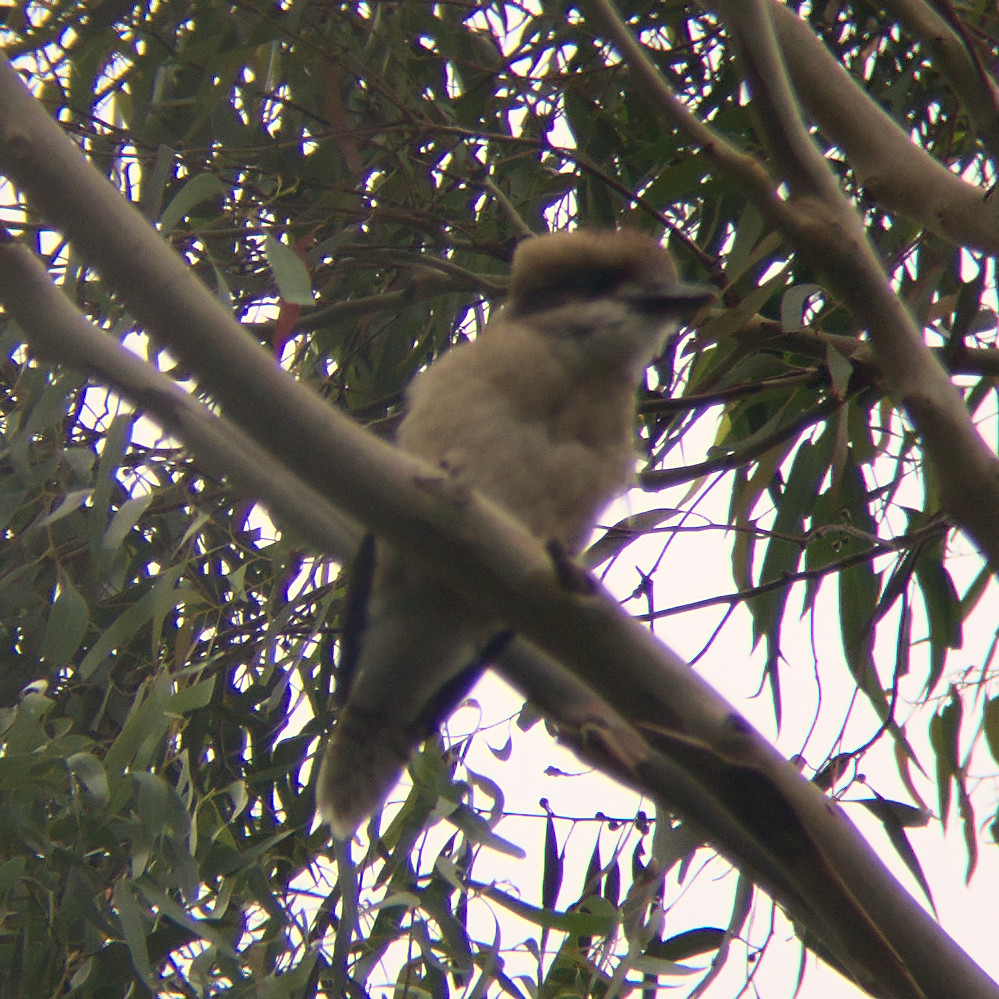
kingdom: Animalia
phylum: Chordata
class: Aves
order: Coraciiformes
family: Alcedinidae
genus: Dacelo
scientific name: Dacelo novaeguineae
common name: Laughing kookaburra
